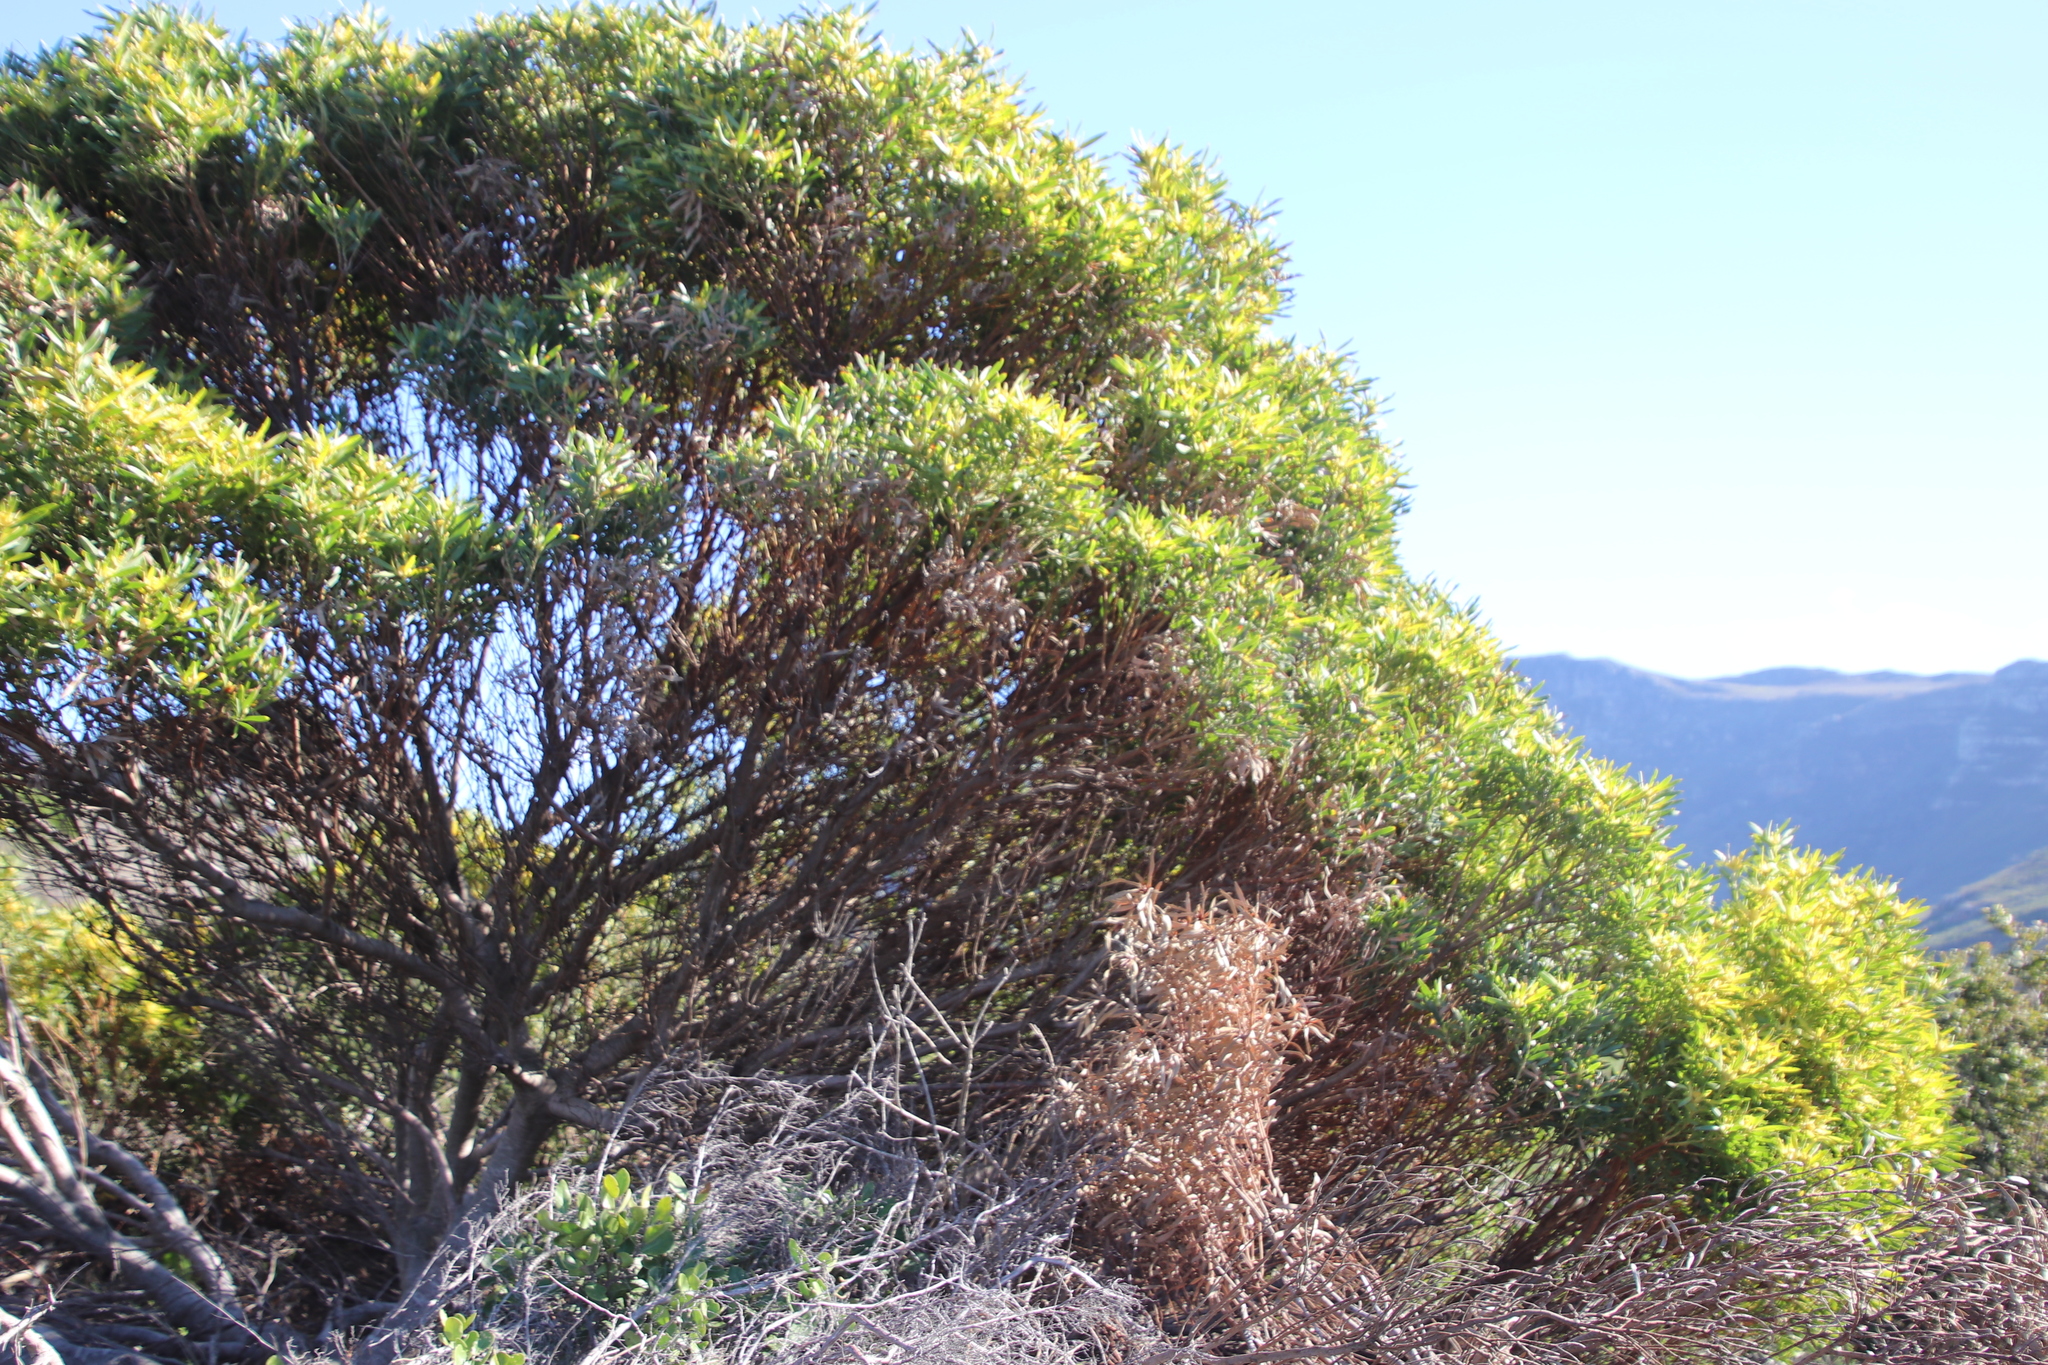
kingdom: Plantae
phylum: Tracheophyta
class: Magnoliopsida
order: Proteales
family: Proteaceae
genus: Leucadendron
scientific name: Leucadendron coniferum
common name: Dune conebush
